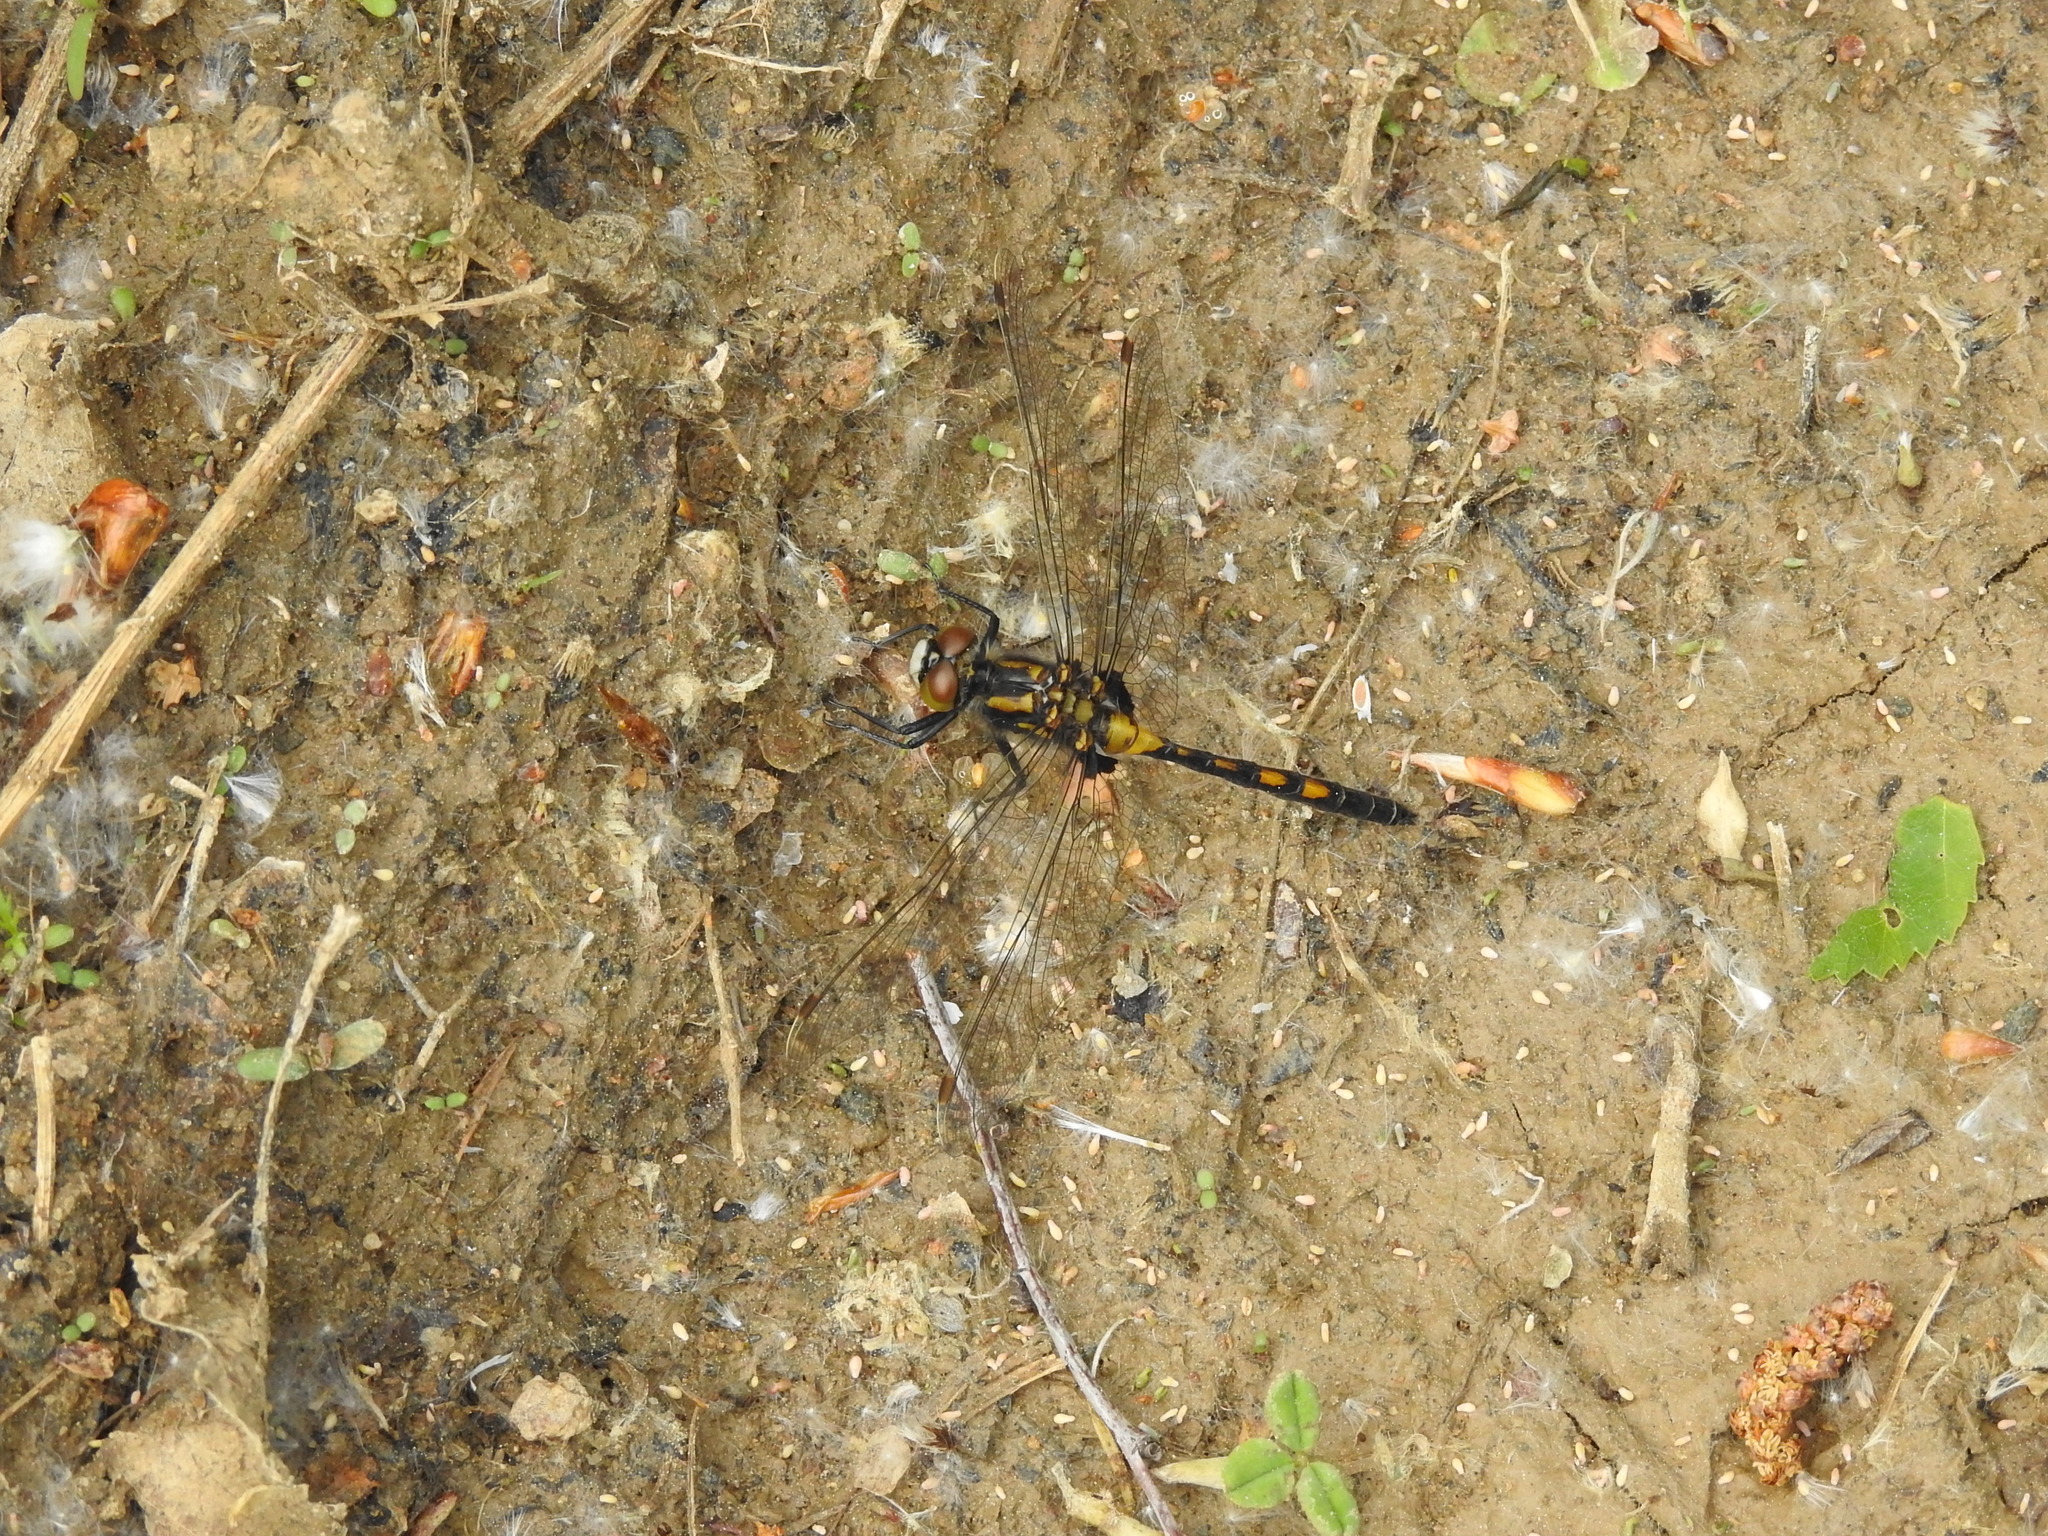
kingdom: Animalia
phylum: Arthropoda
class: Insecta
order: Odonata
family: Libellulidae
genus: Leucorrhinia
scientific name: Leucorrhinia rubicunda
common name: Ruby whiteface
